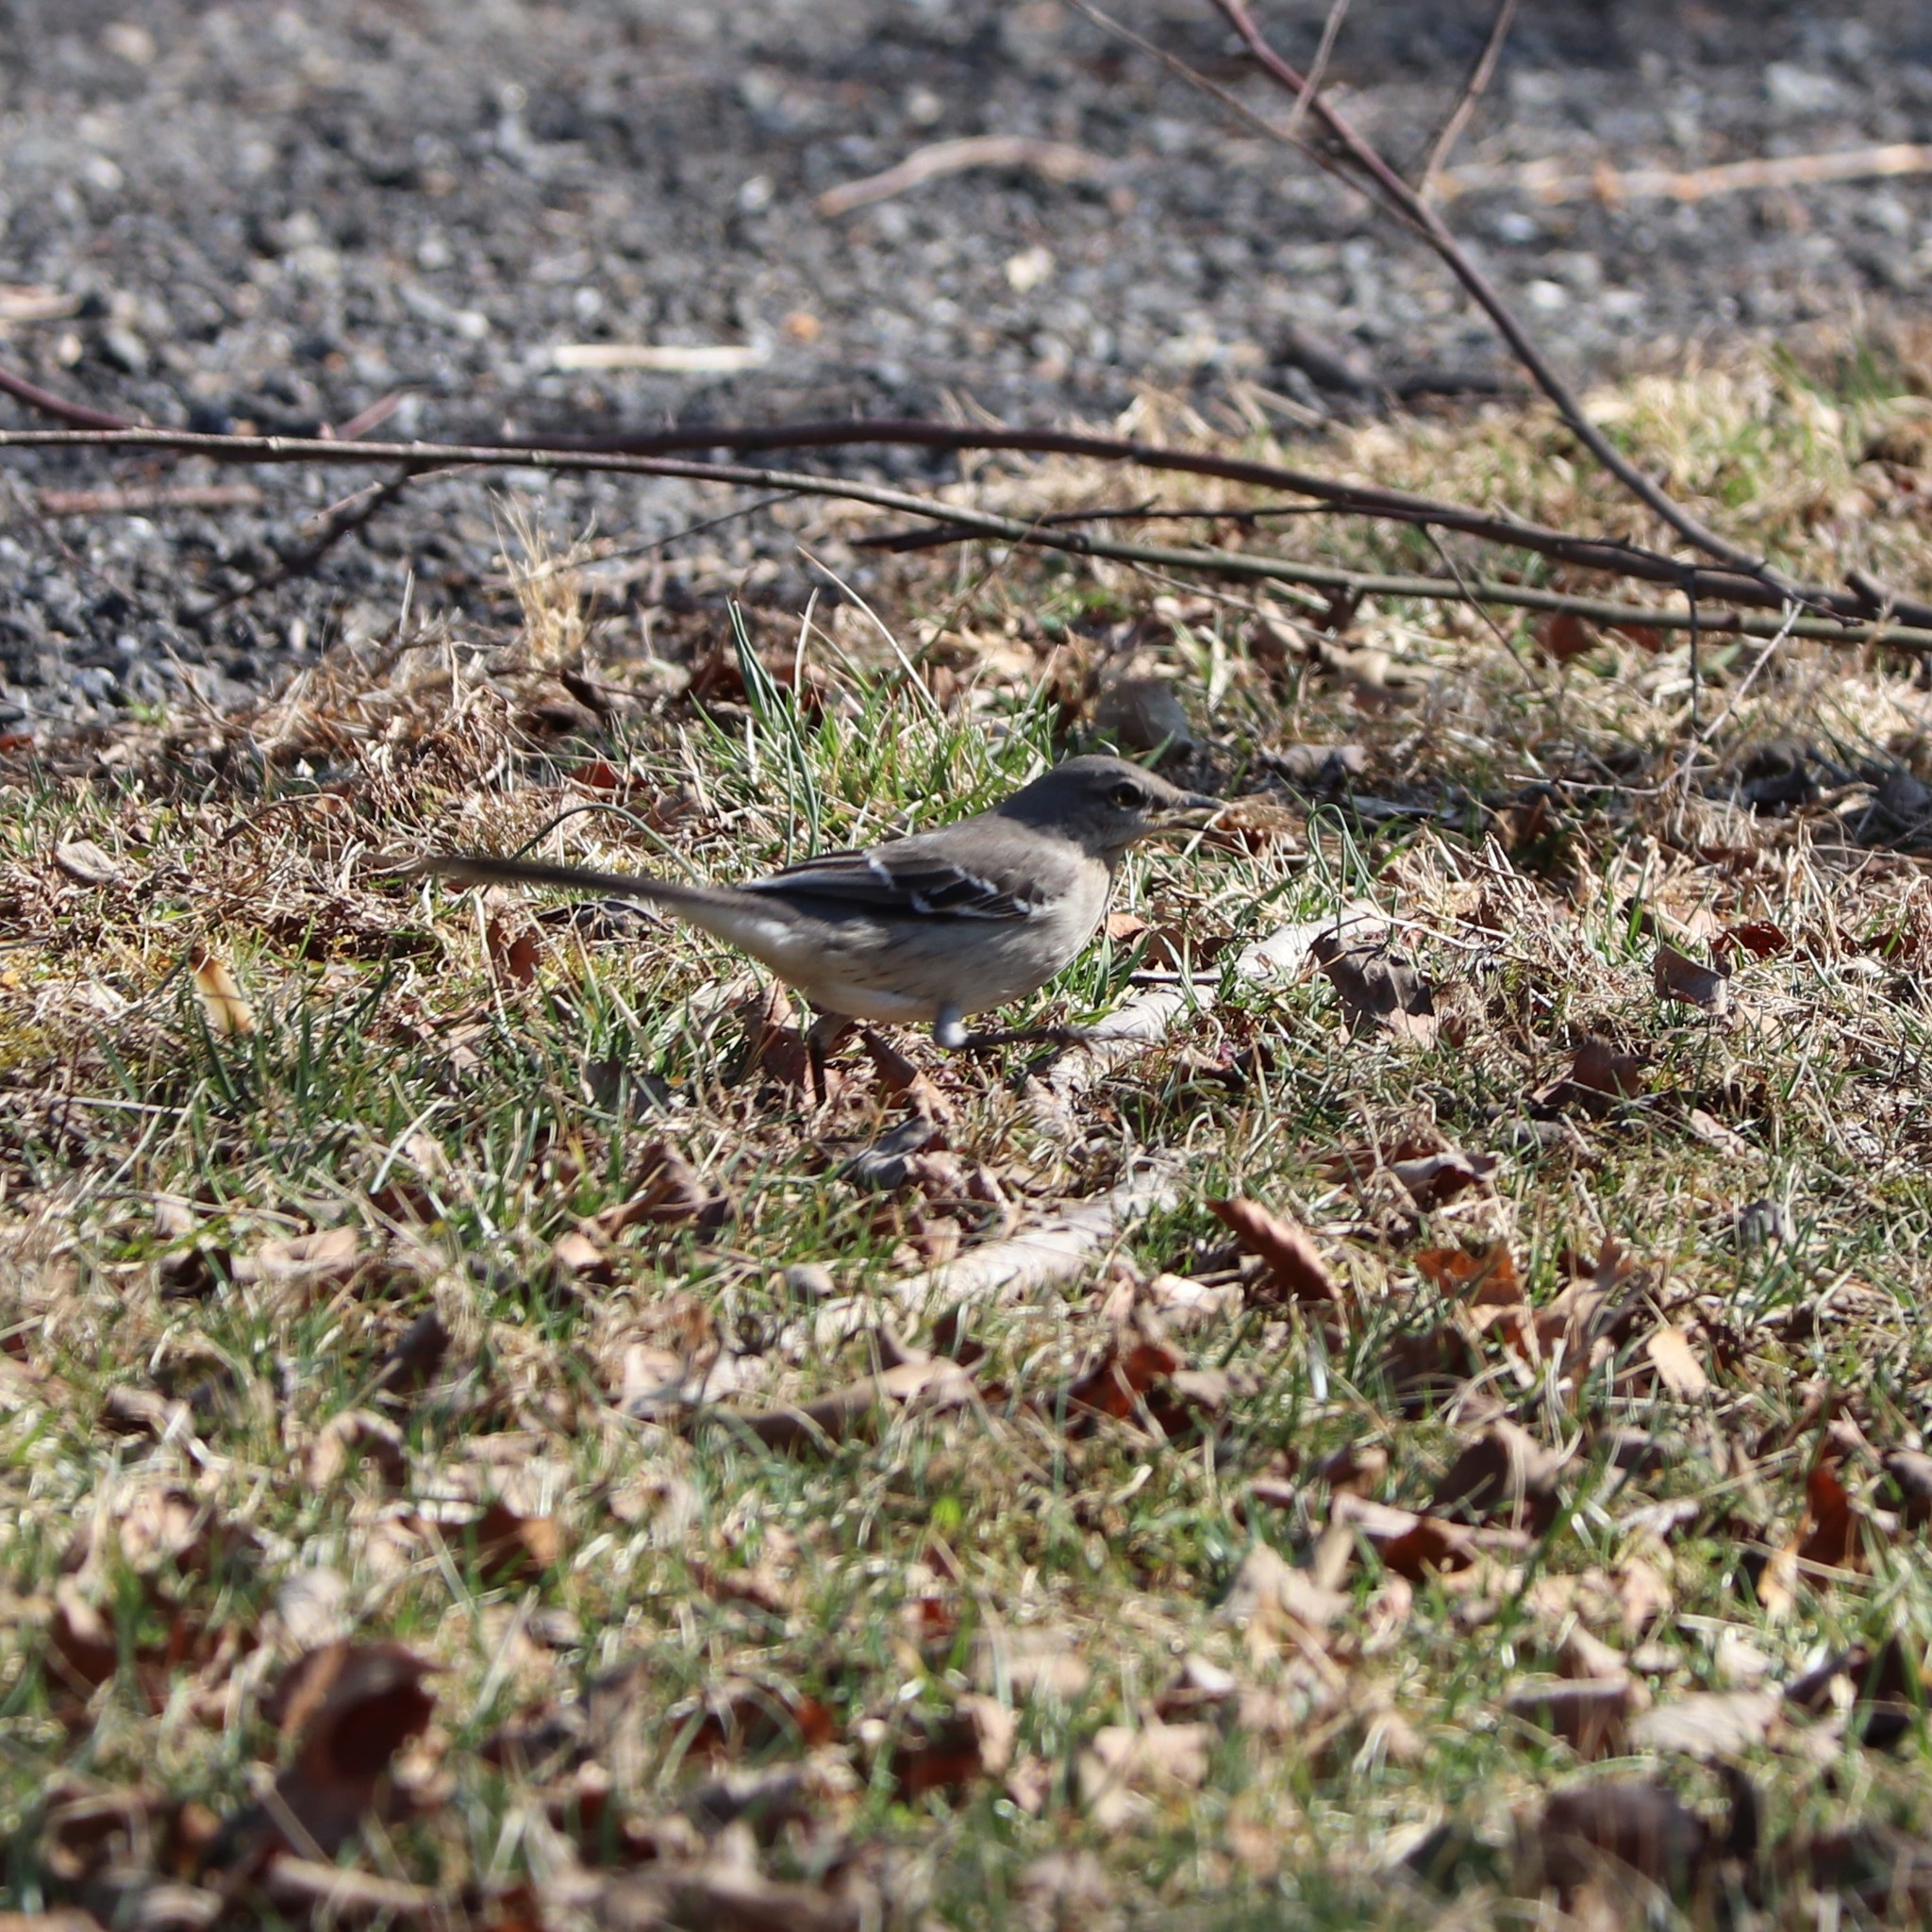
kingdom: Animalia
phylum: Chordata
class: Aves
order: Passeriformes
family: Mimidae
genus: Mimus
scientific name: Mimus polyglottos
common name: Northern mockingbird
